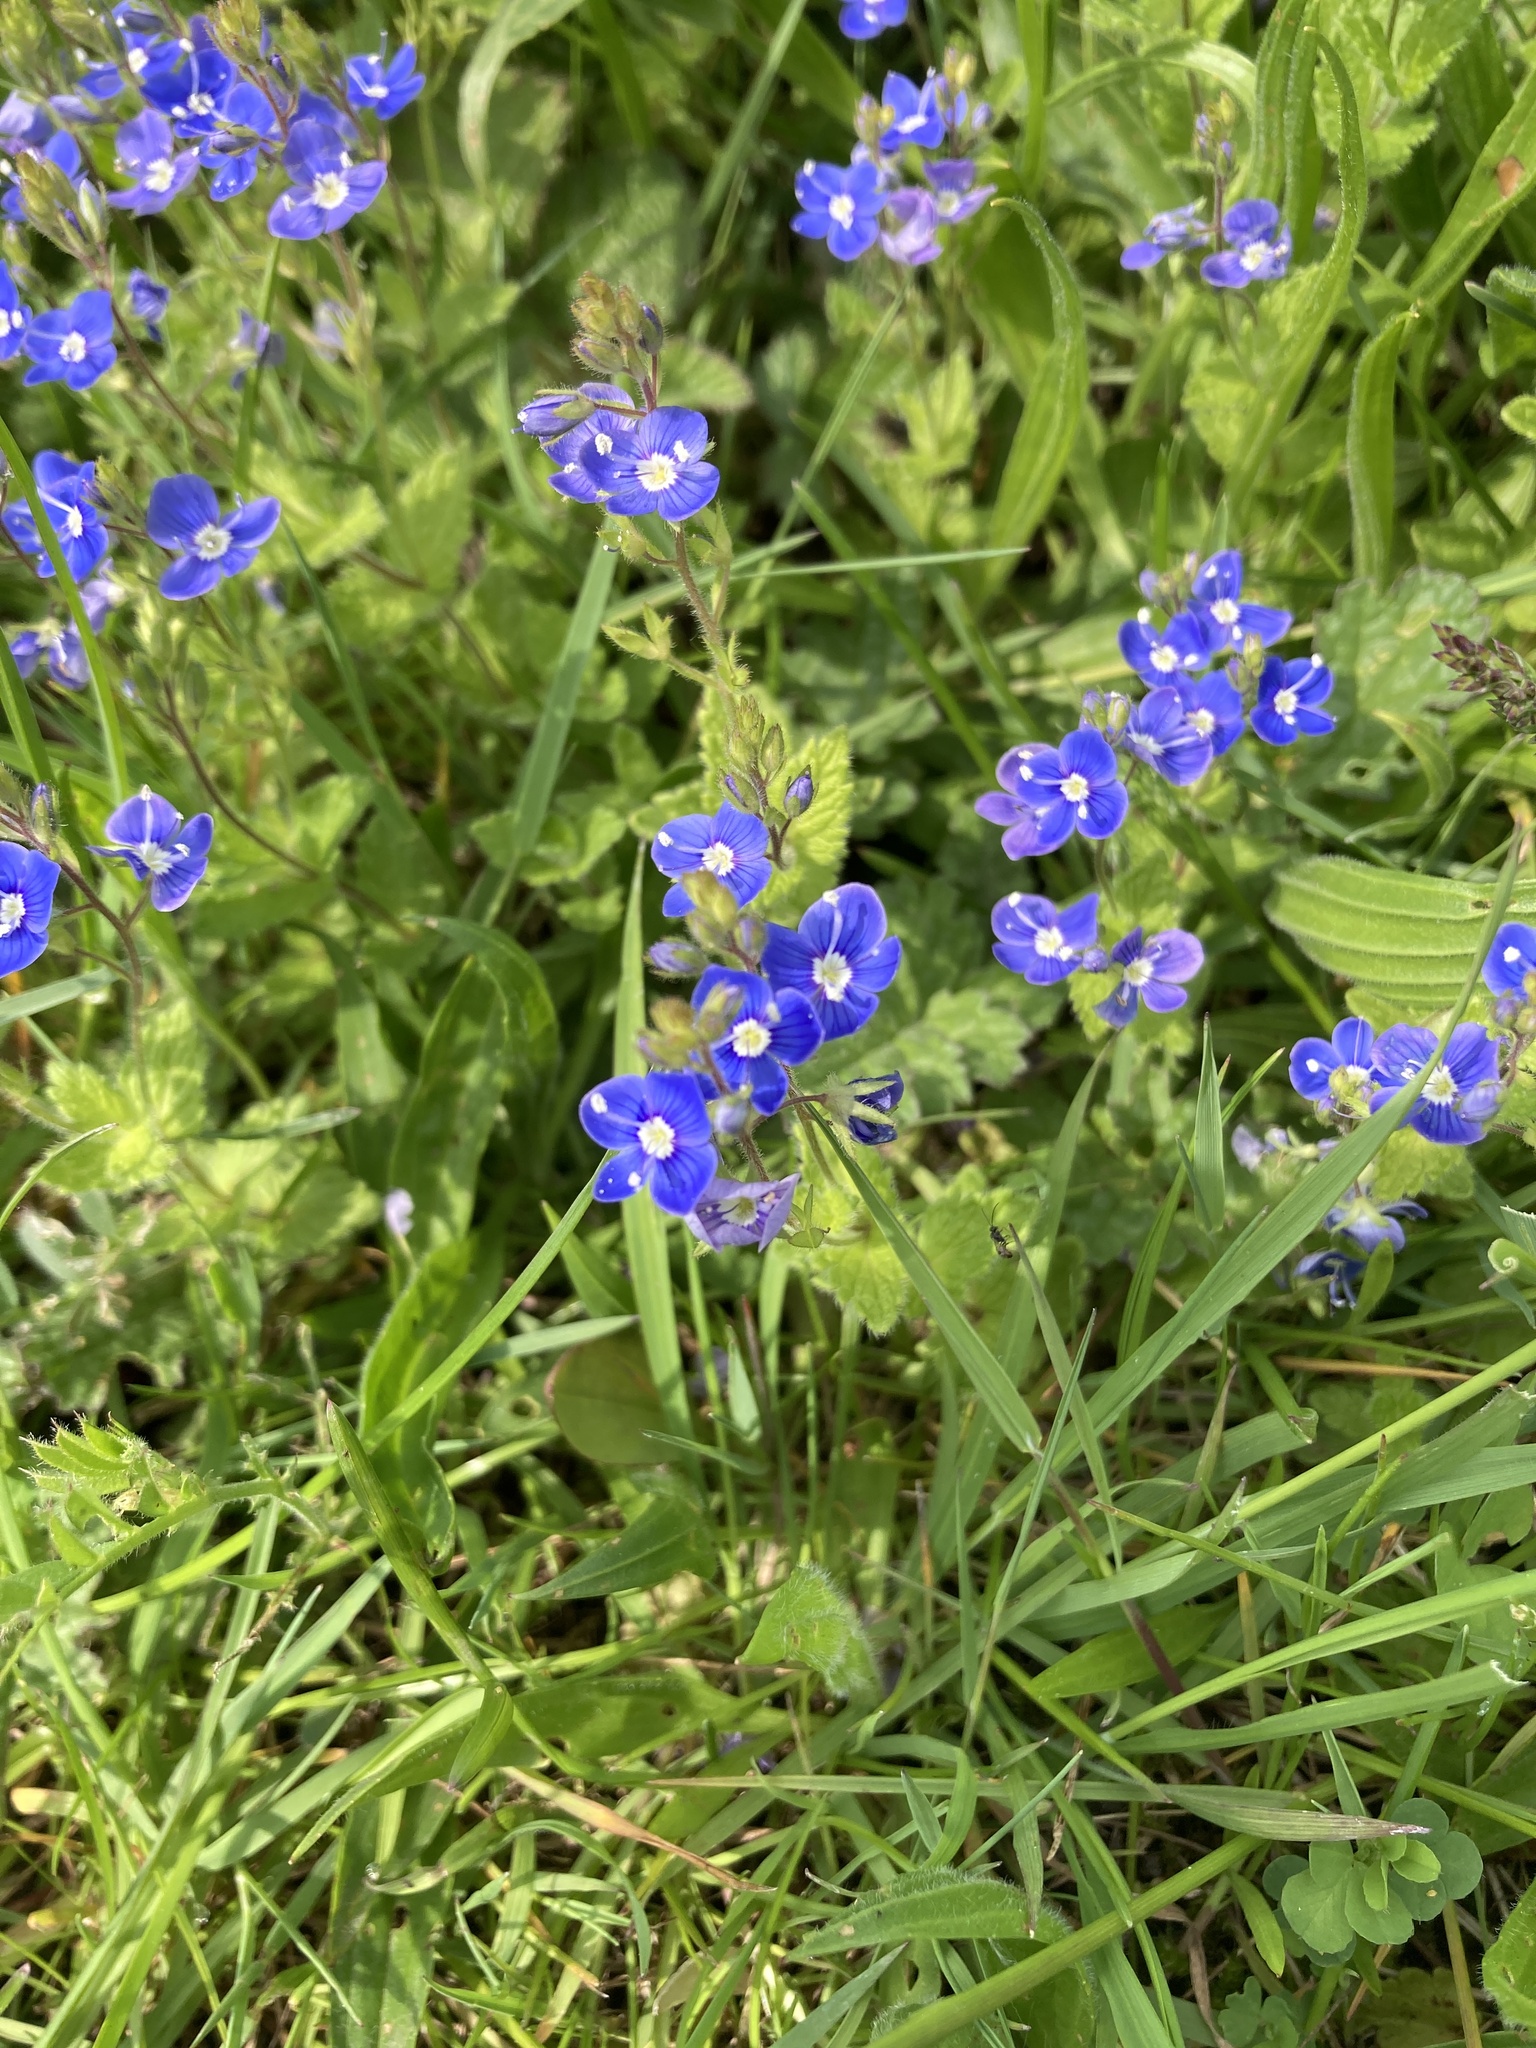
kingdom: Plantae
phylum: Tracheophyta
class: Magnoliopsida
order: Lamiales
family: Plantaginaceae
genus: Veronica
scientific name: Veronica chamaedrys
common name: Germander speedwell
